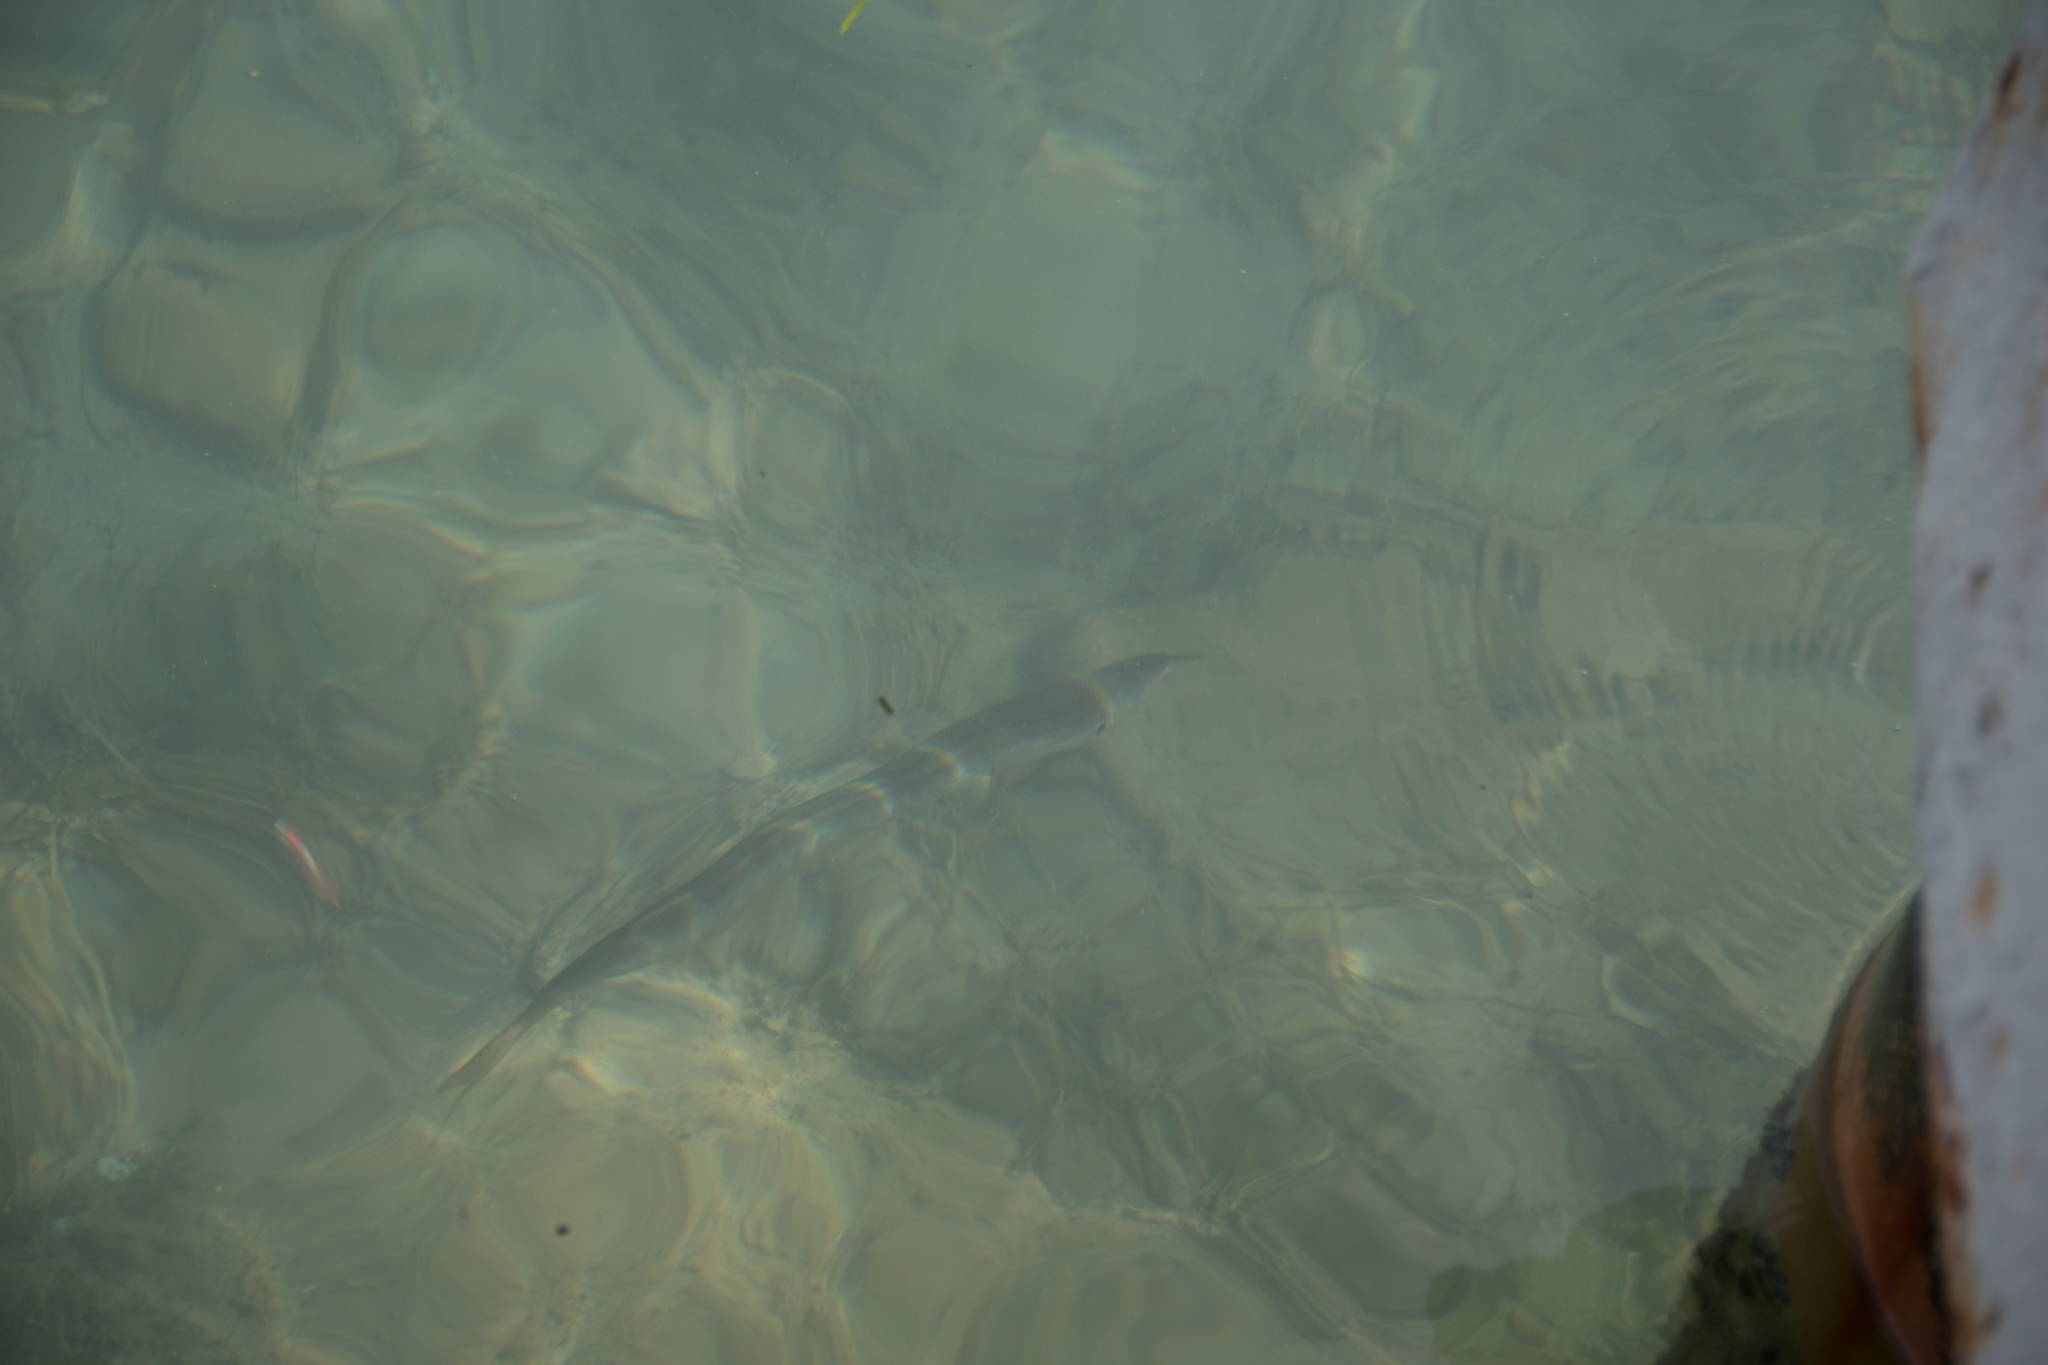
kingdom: Animalia
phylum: Chordata
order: Perciformes
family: Sphyraenidae
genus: Sphyraena
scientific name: Sphyraena
